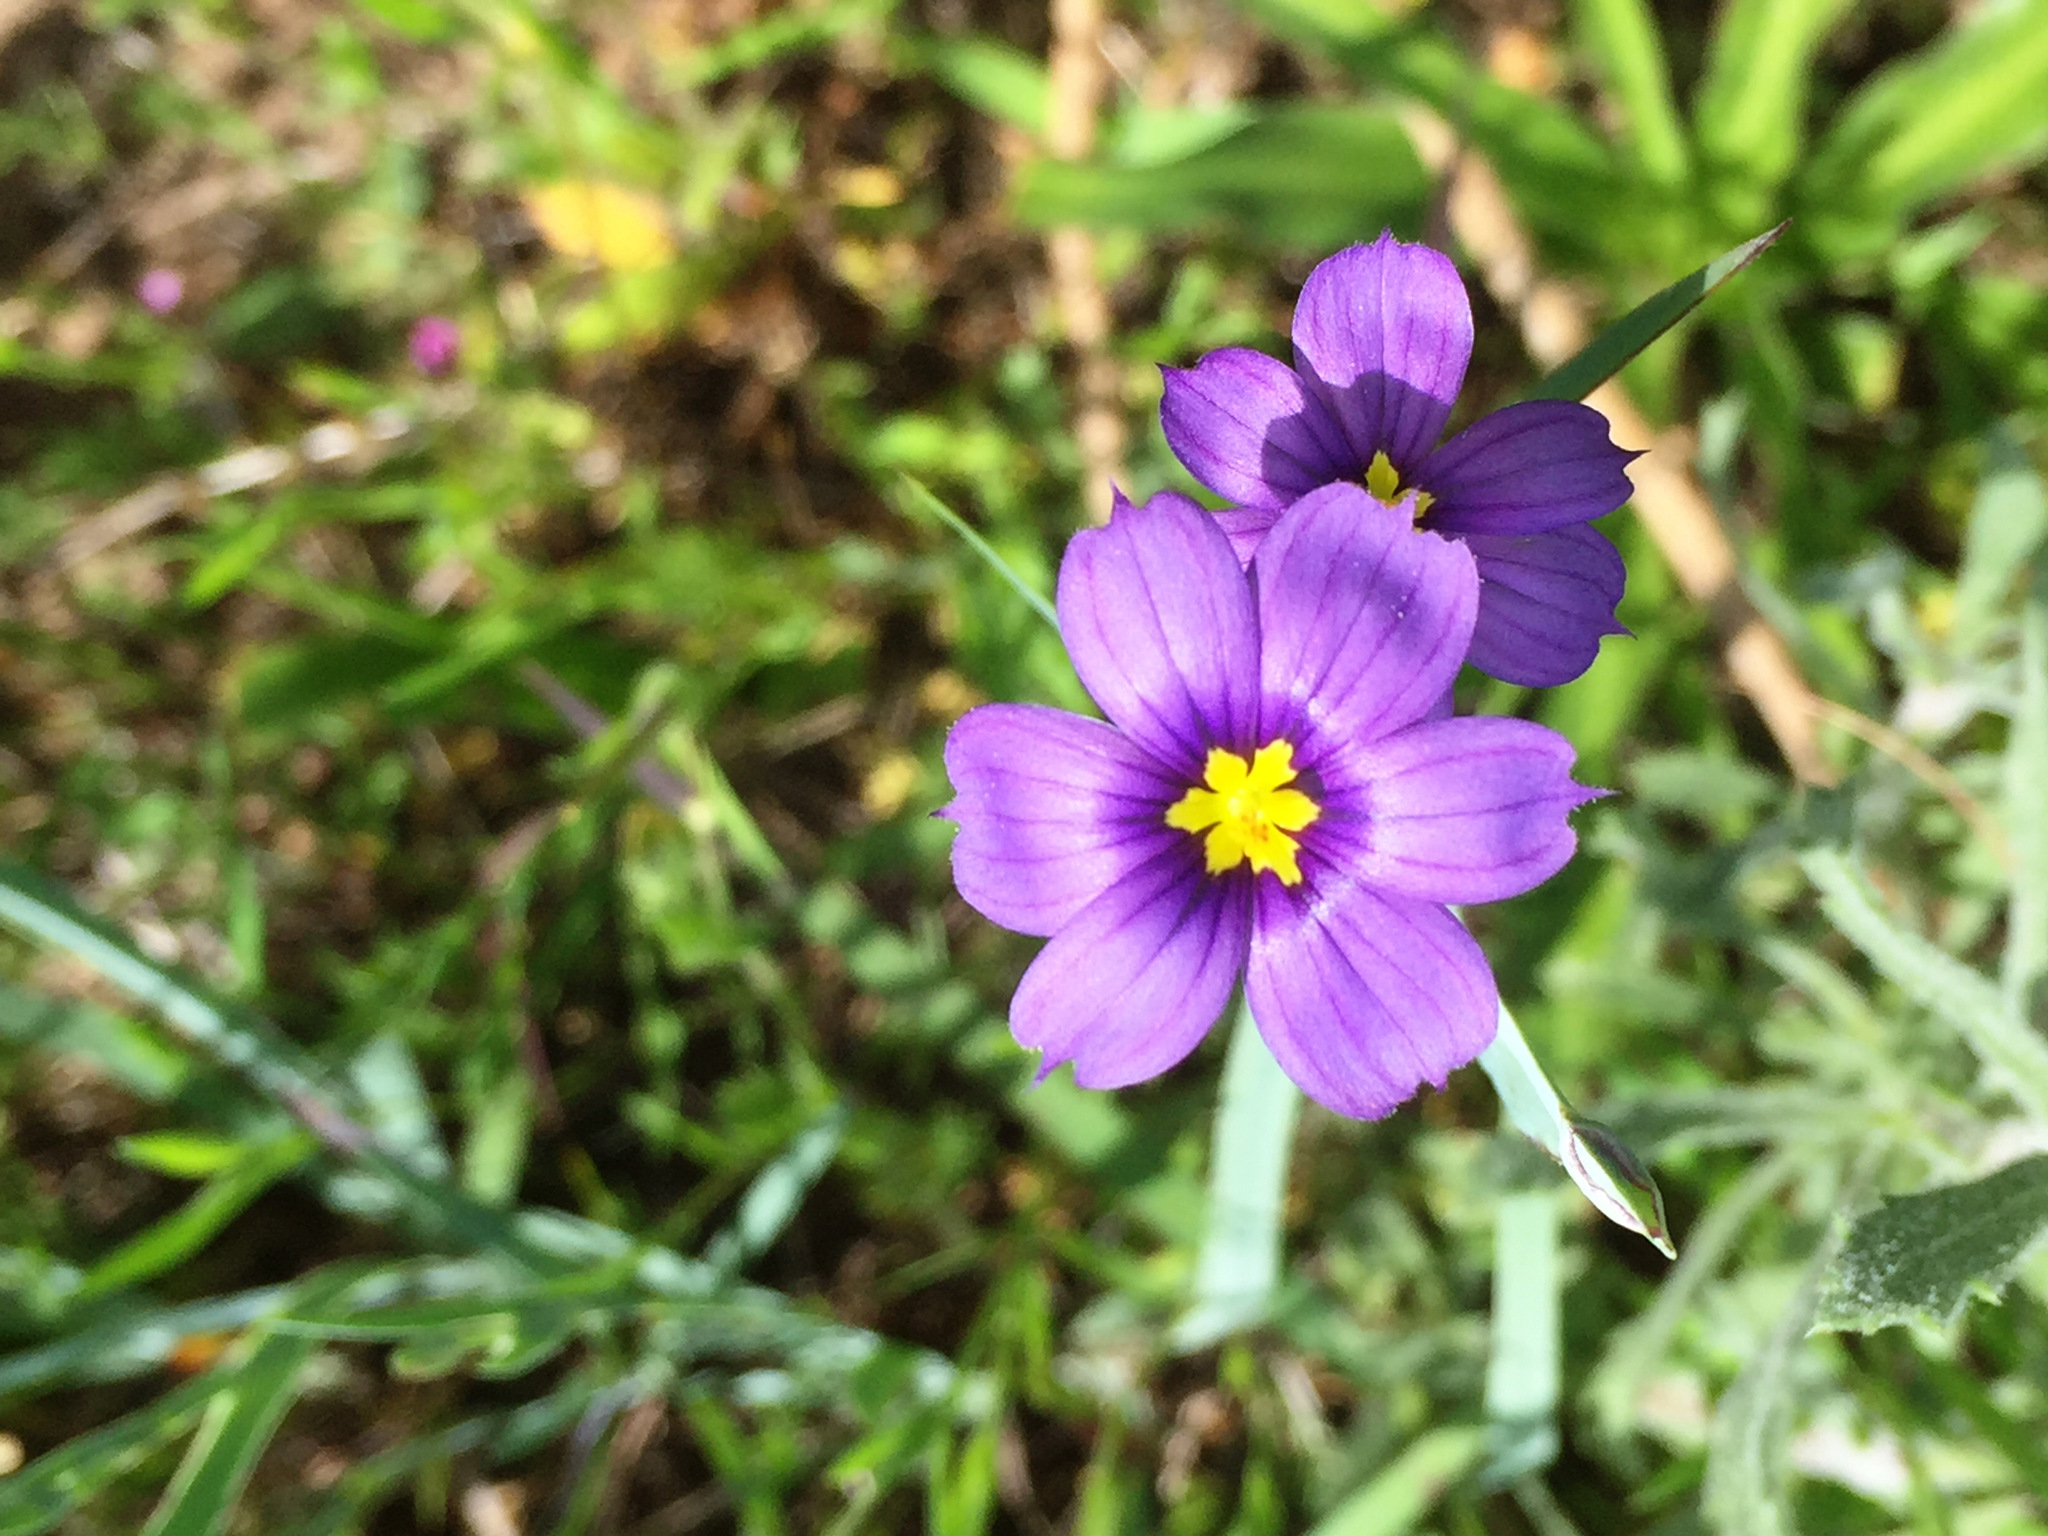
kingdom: Plantae
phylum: Tracheophyta
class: Liliopsida
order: Asparagales
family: Iridaceae
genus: Sisyrinchium
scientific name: Sisyrinchium bellum
